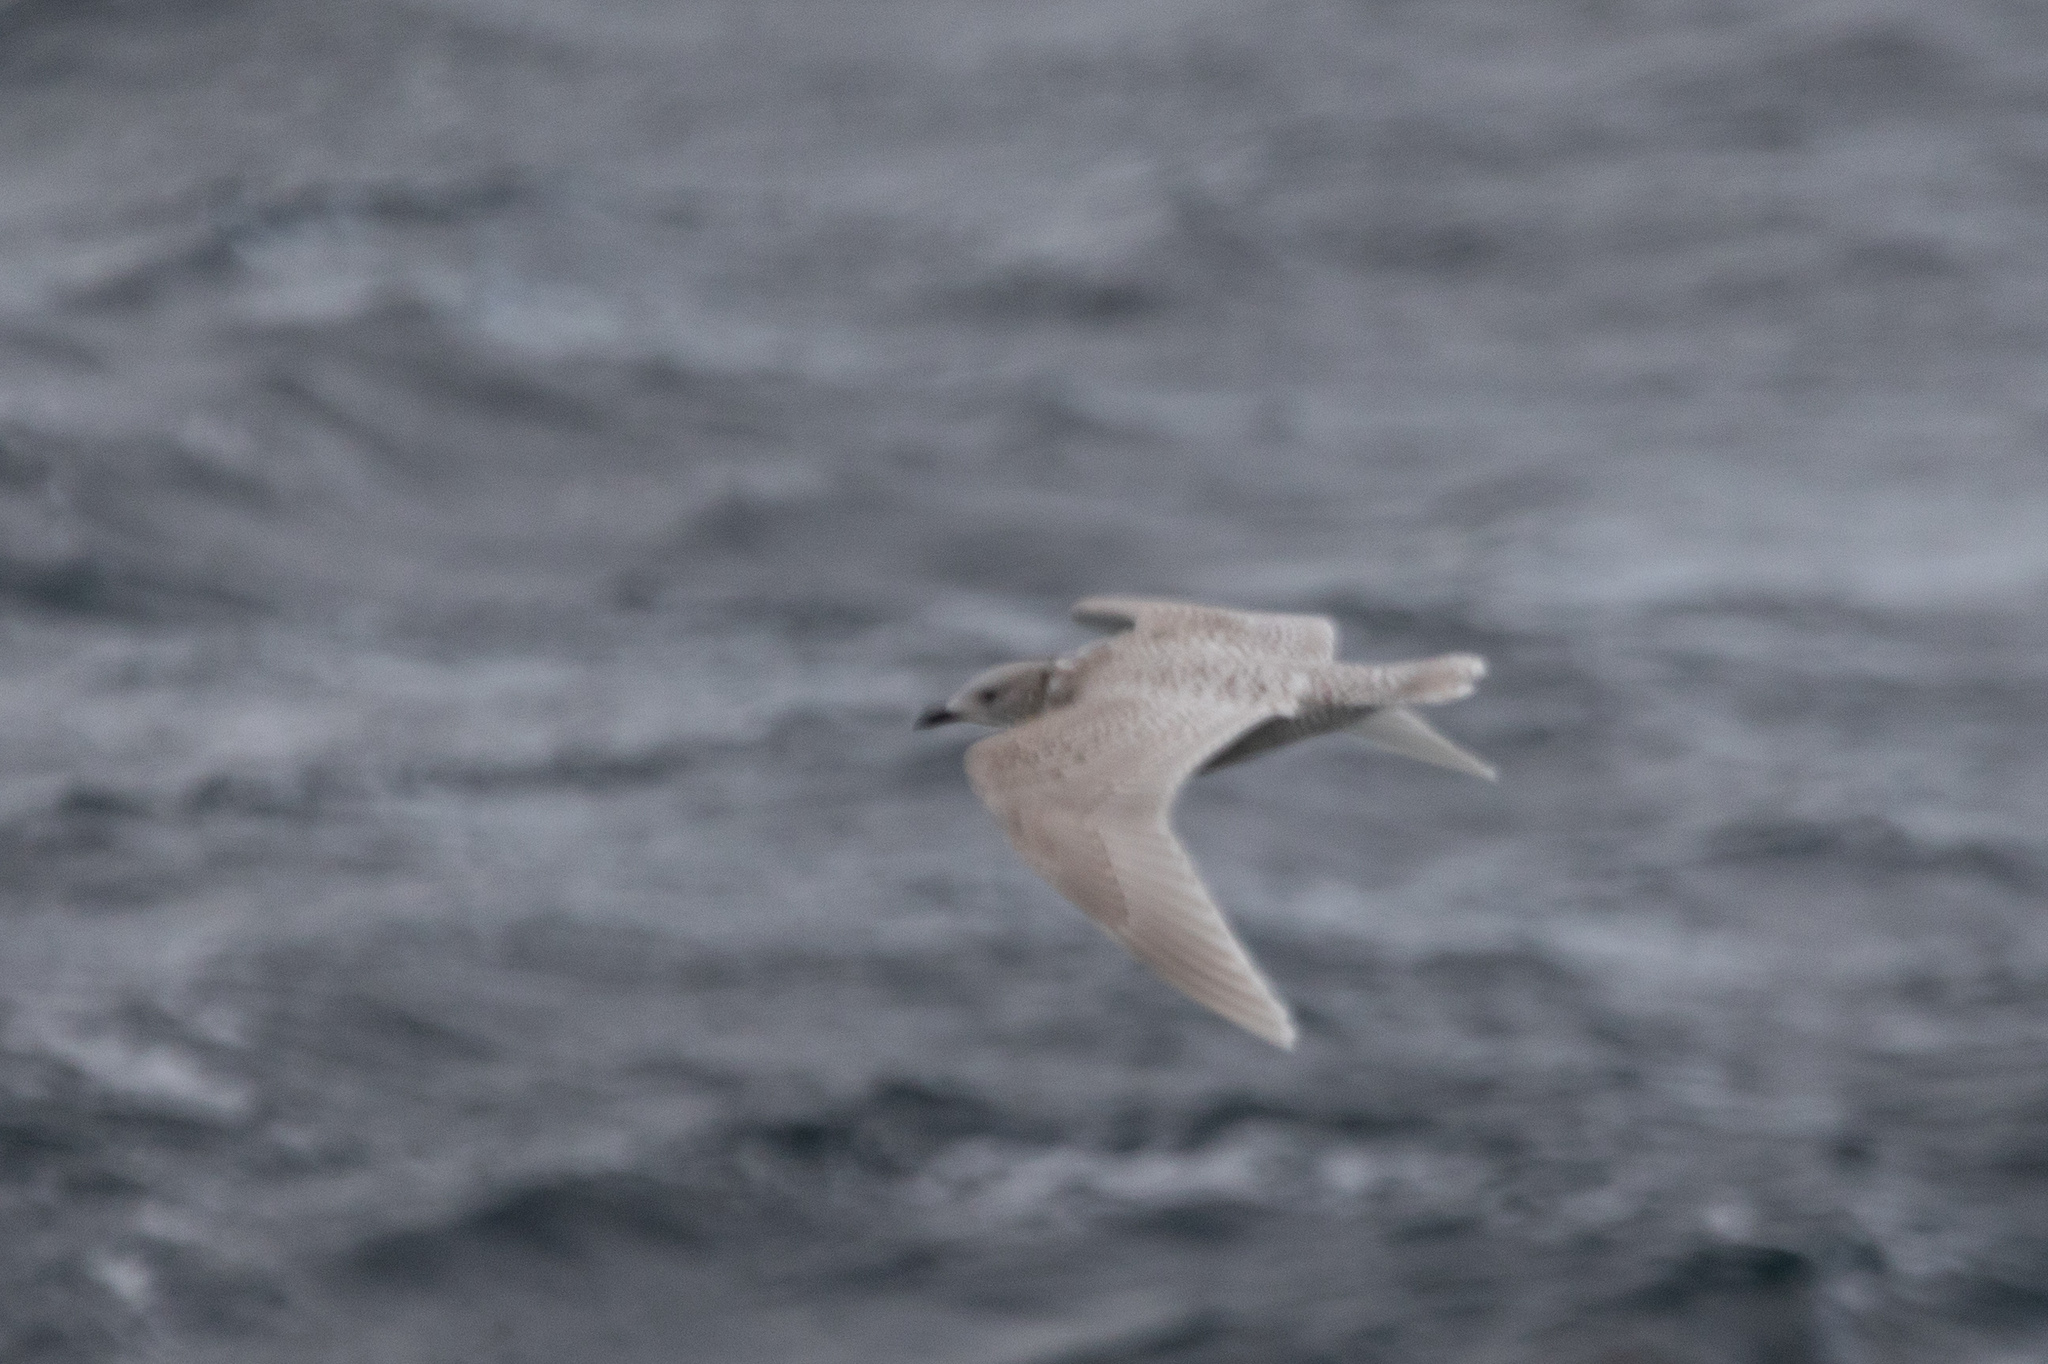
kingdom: Animalia
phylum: Chordata
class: Aves
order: Charadriiformes
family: Laridae
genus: Larus
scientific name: Larus glaucoides
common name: Iceland gull
